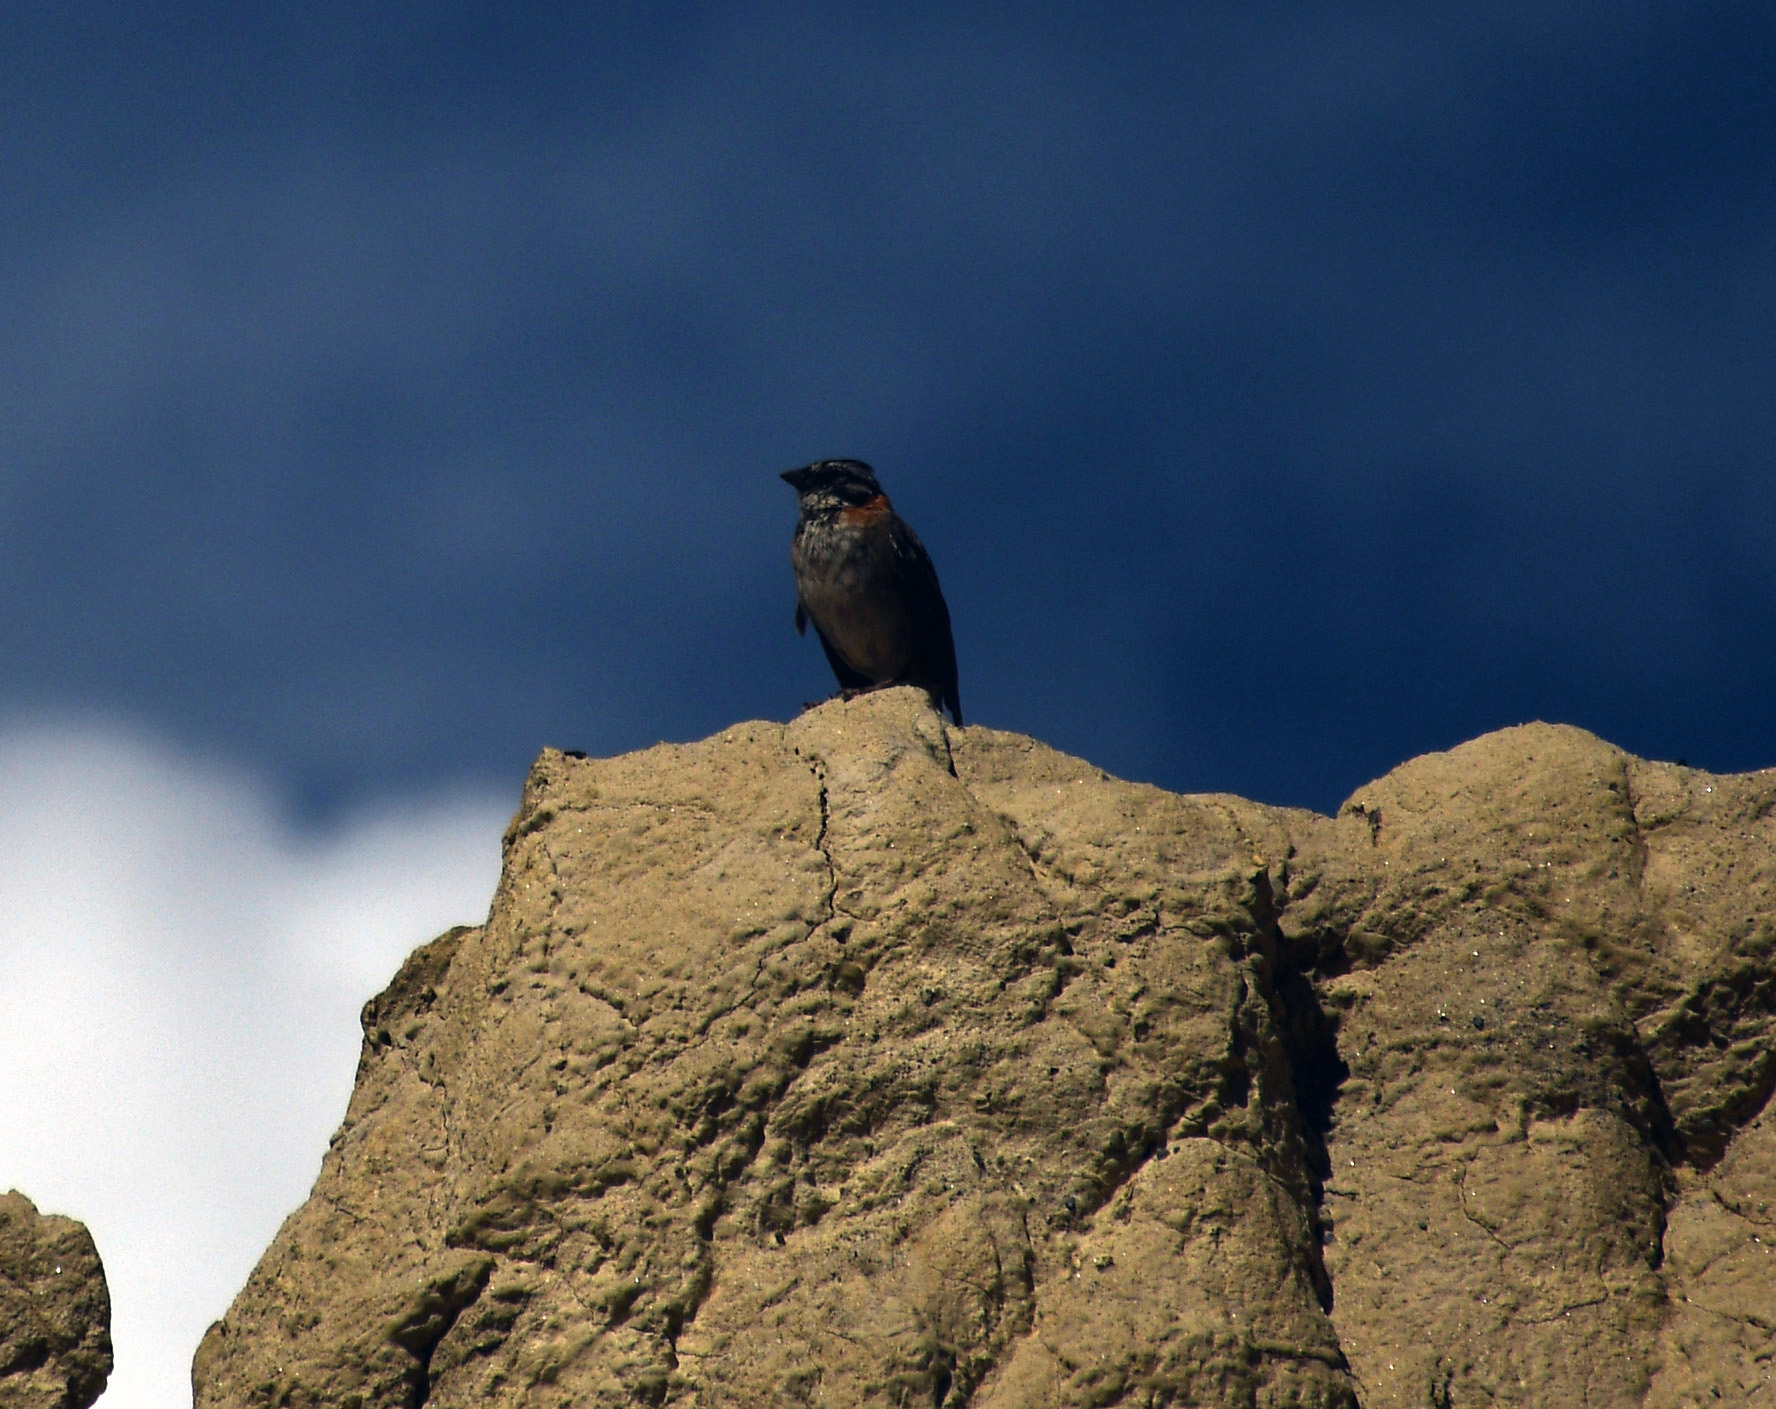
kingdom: Animalia
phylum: Chordata
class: Aves
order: Passeriformes
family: Passerellidae
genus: Zonotrichia
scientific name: Zonotrichia capensis
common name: Rufous-collared sparrow
